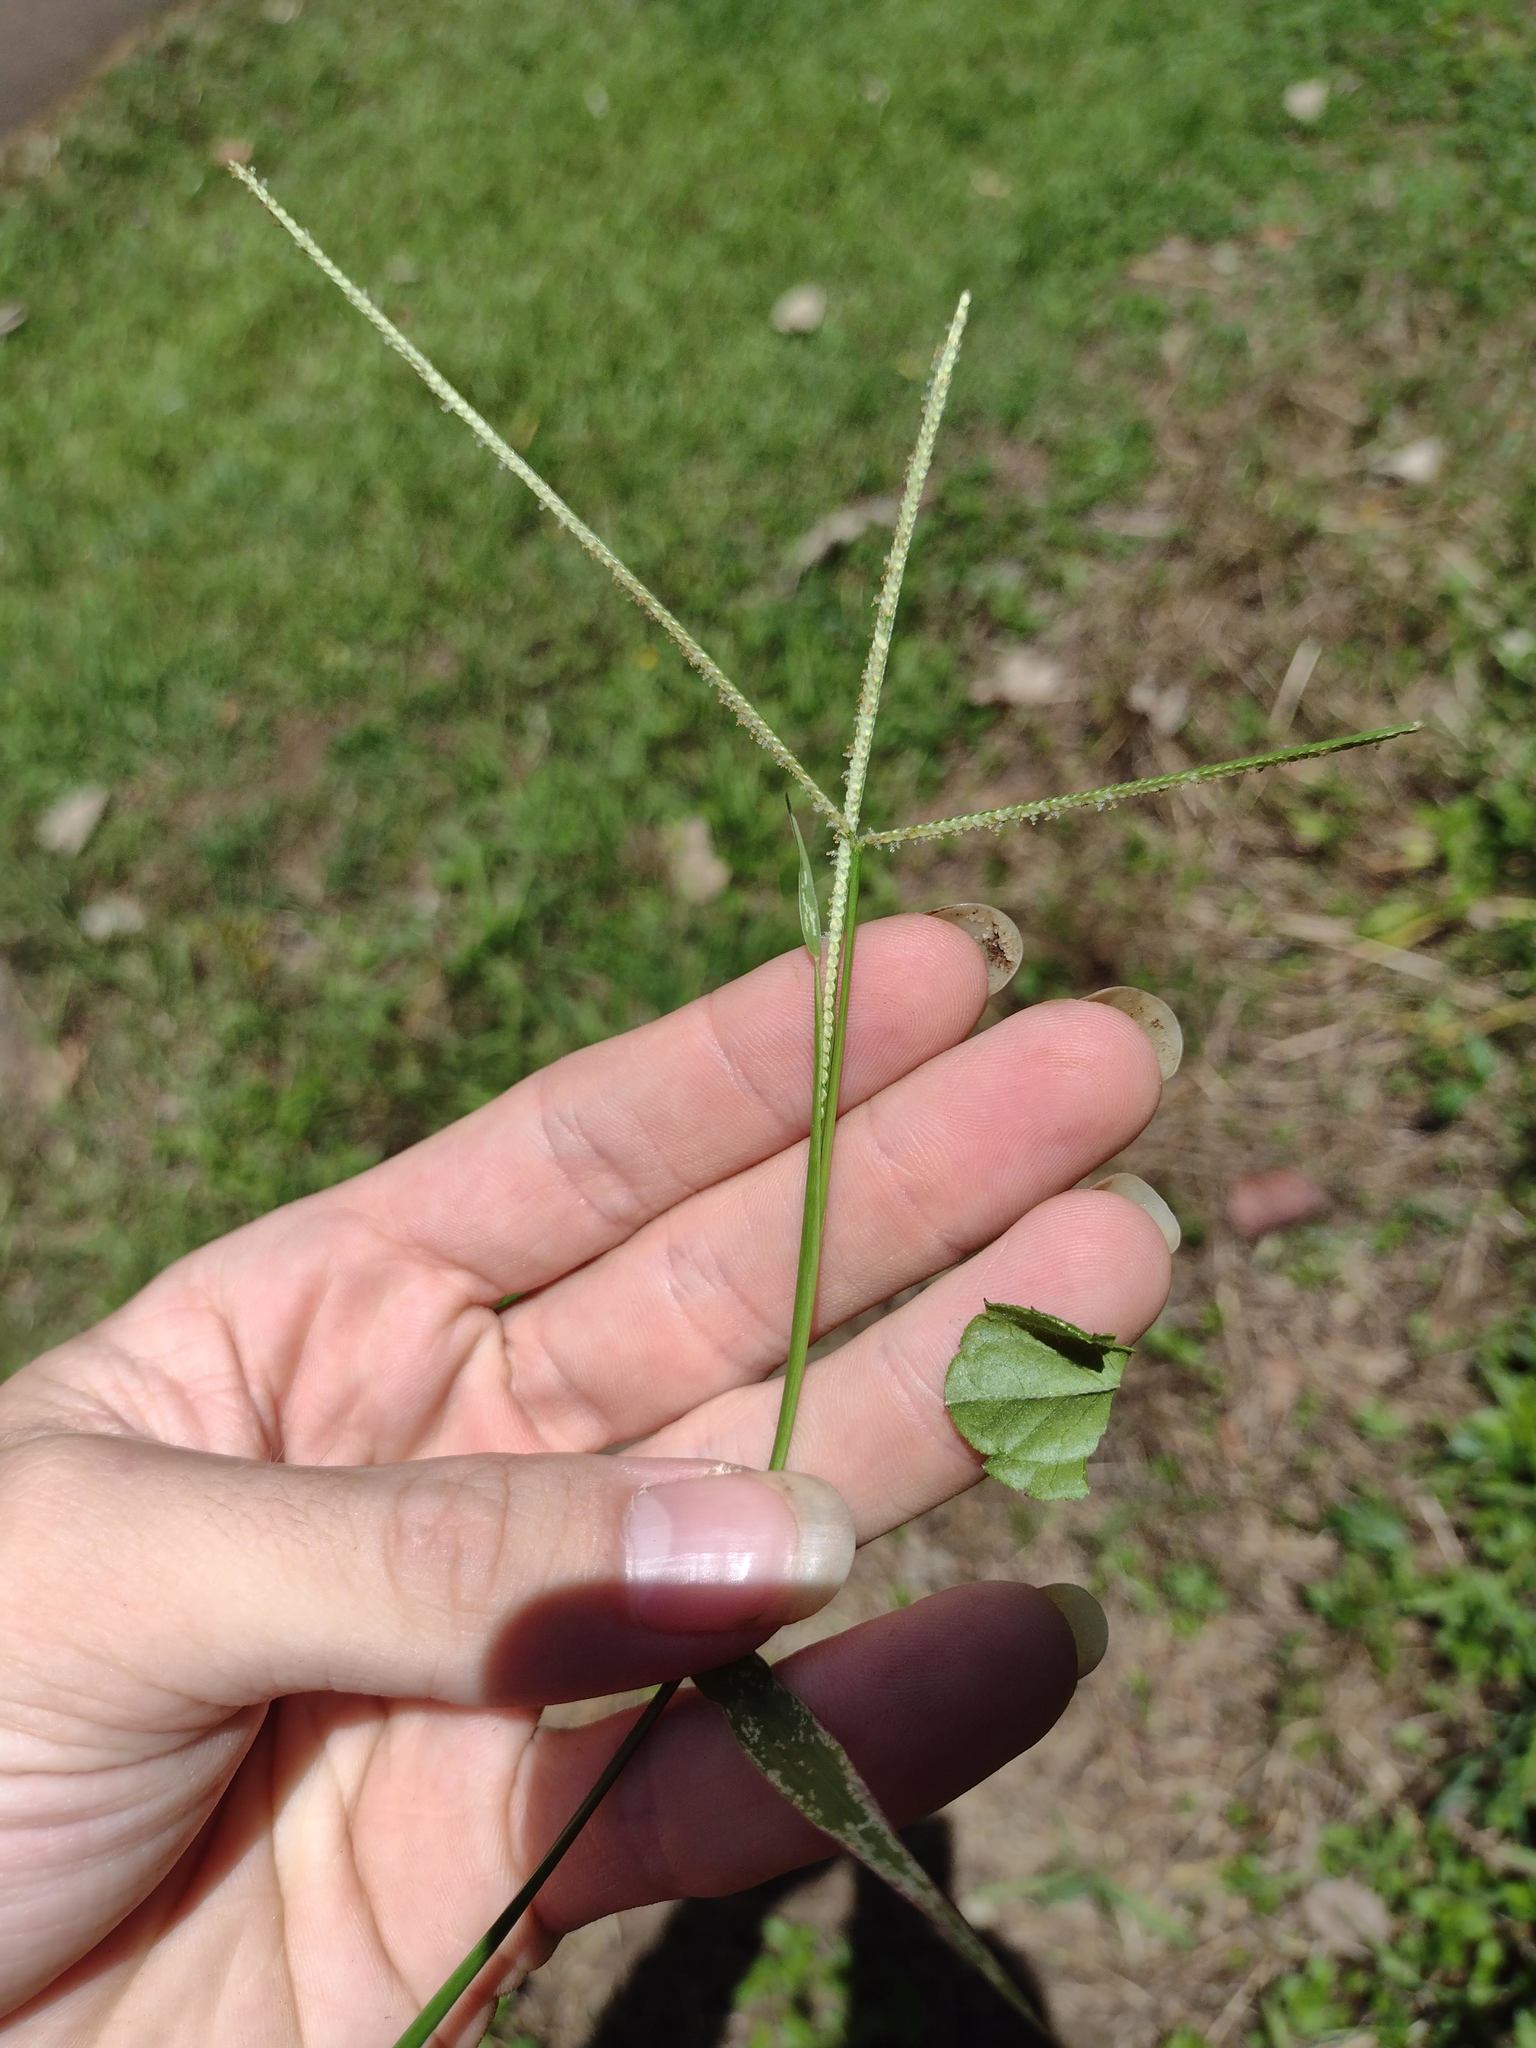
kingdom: Plantae
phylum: Tracheophyta
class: Liliopsida
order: Poales
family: Poaceae
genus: Paspalum
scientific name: Paspalum conjugatum
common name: Hilograss
